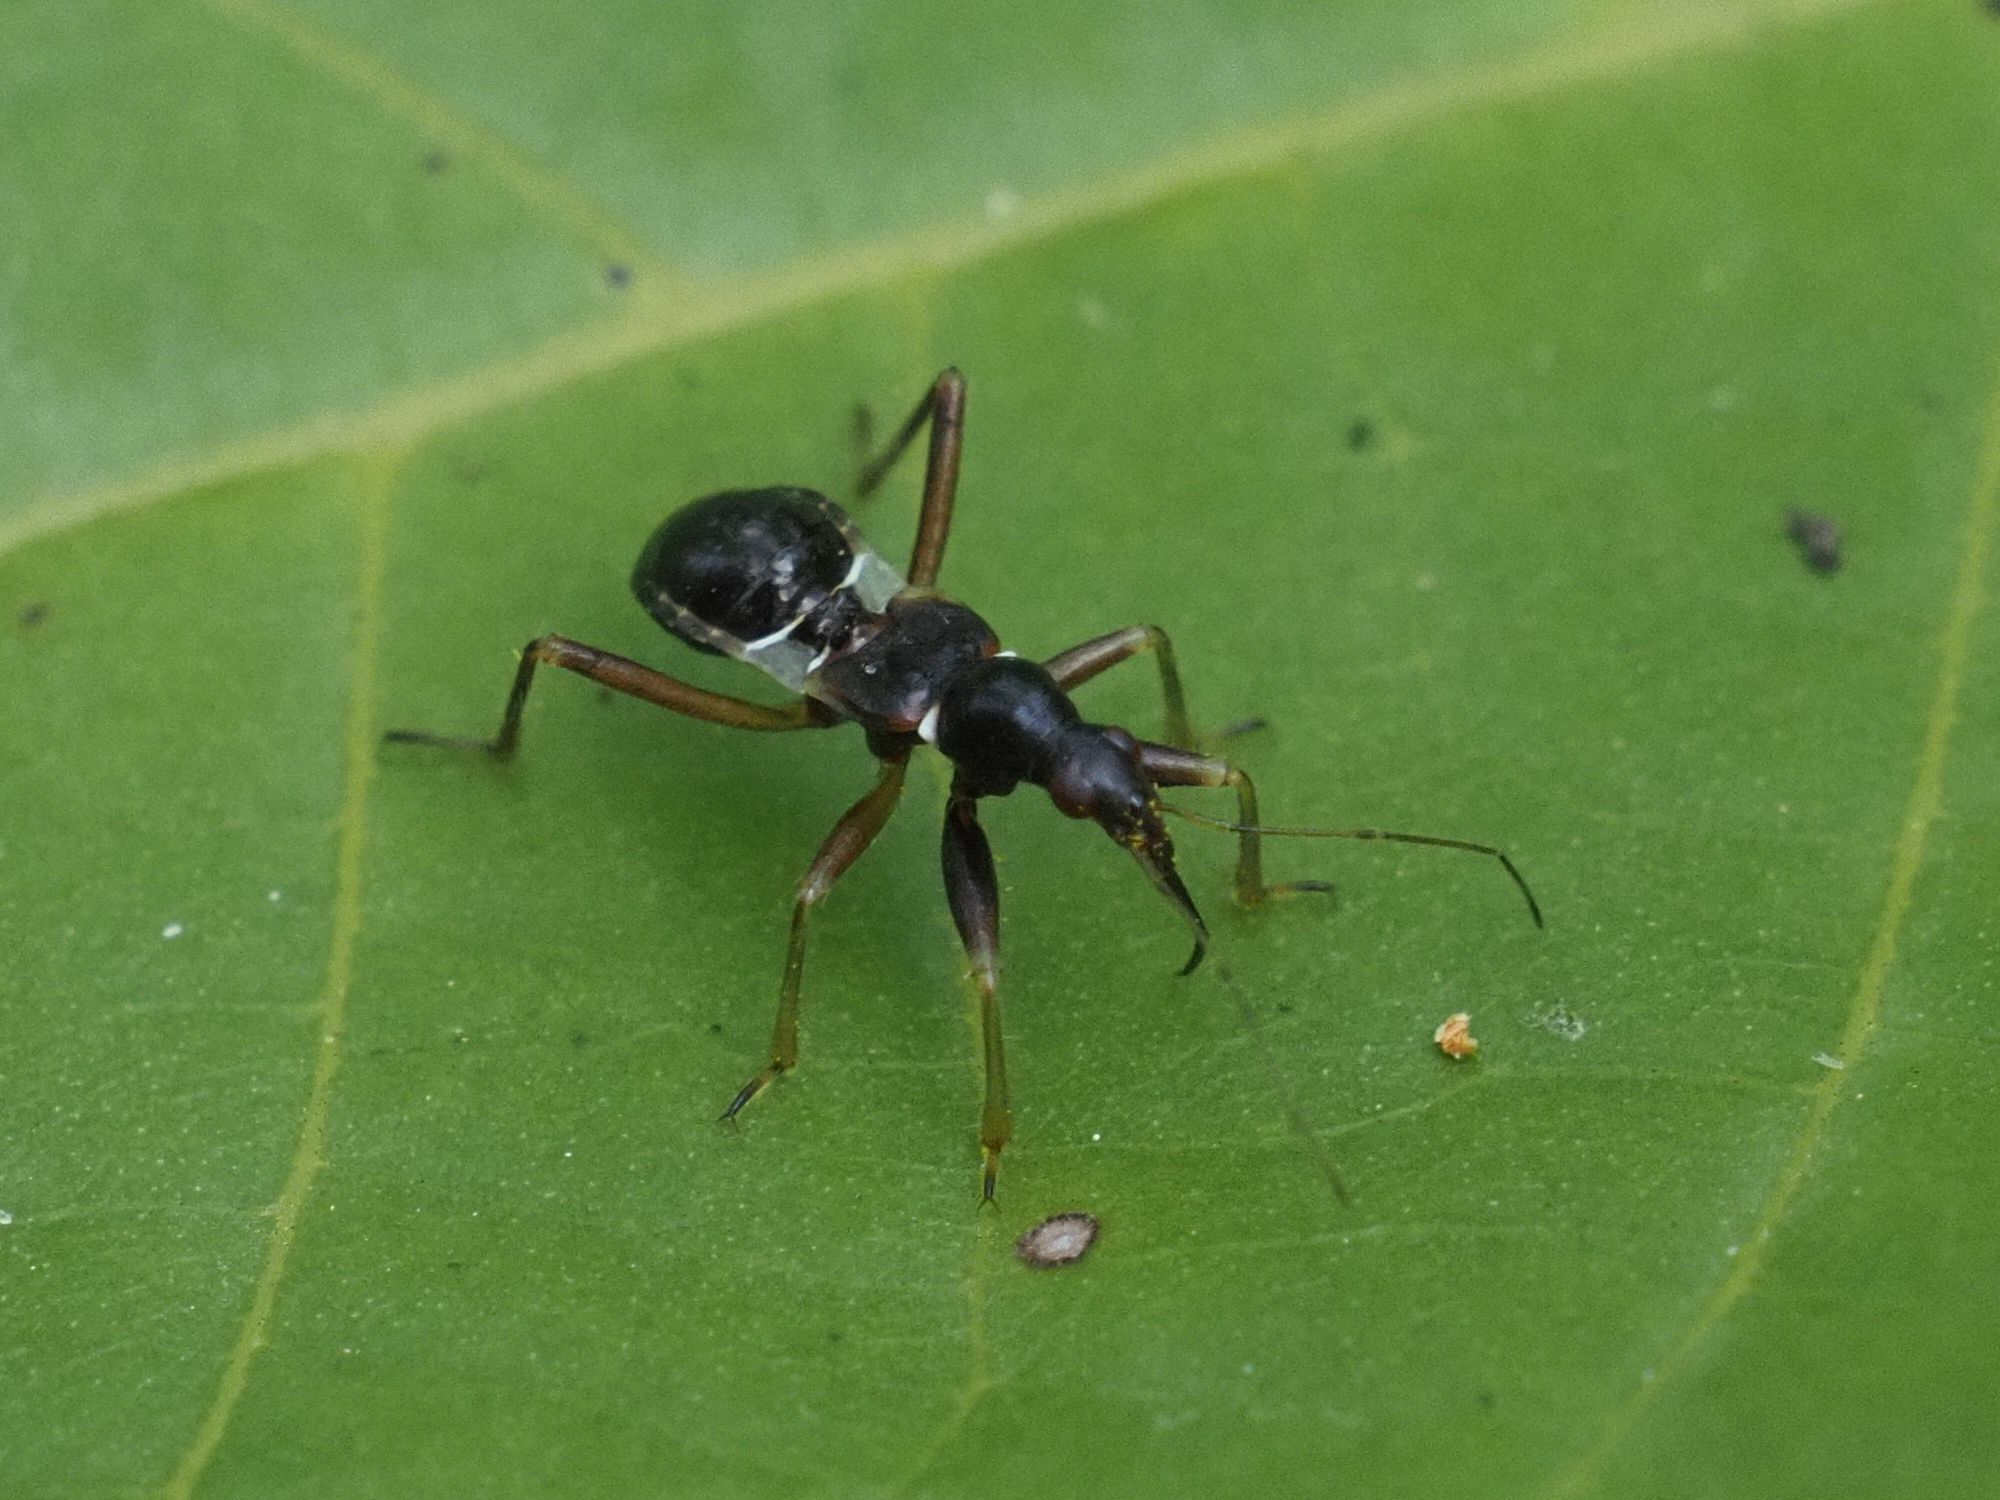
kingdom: Animalia
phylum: Arthropoda
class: Insecta
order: Hemiptera
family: Nabidae
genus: Himacerus
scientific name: Himacerus mirmicoides
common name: Ant damsel bug
